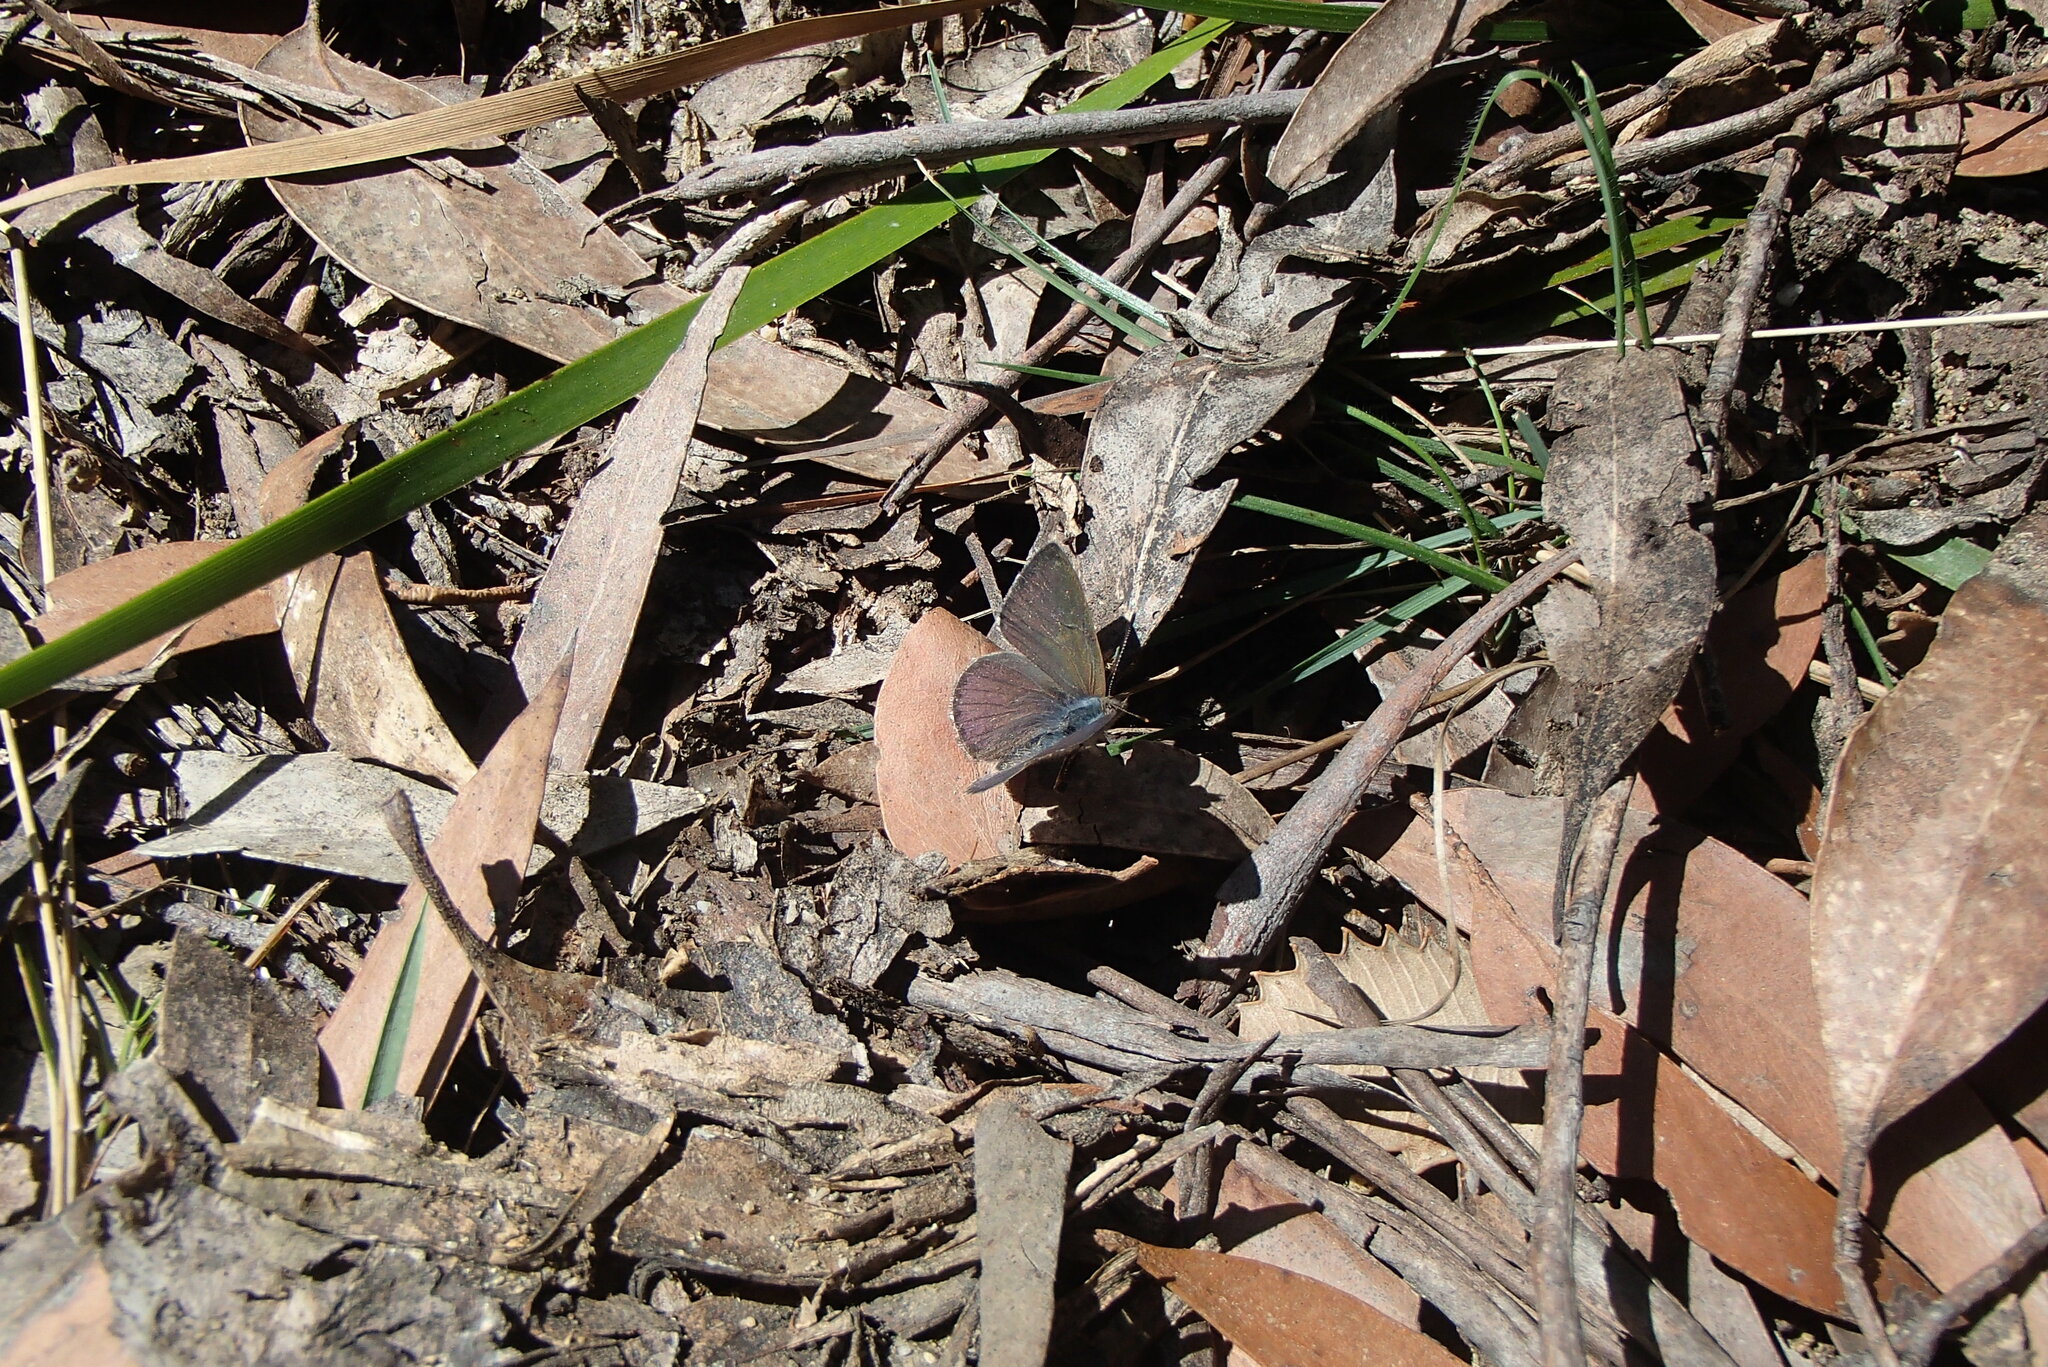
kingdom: Animalia
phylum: Arthropoda
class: Insecta
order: Lepidoptera
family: Lycaenidae
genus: Candalides
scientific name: Candalides
